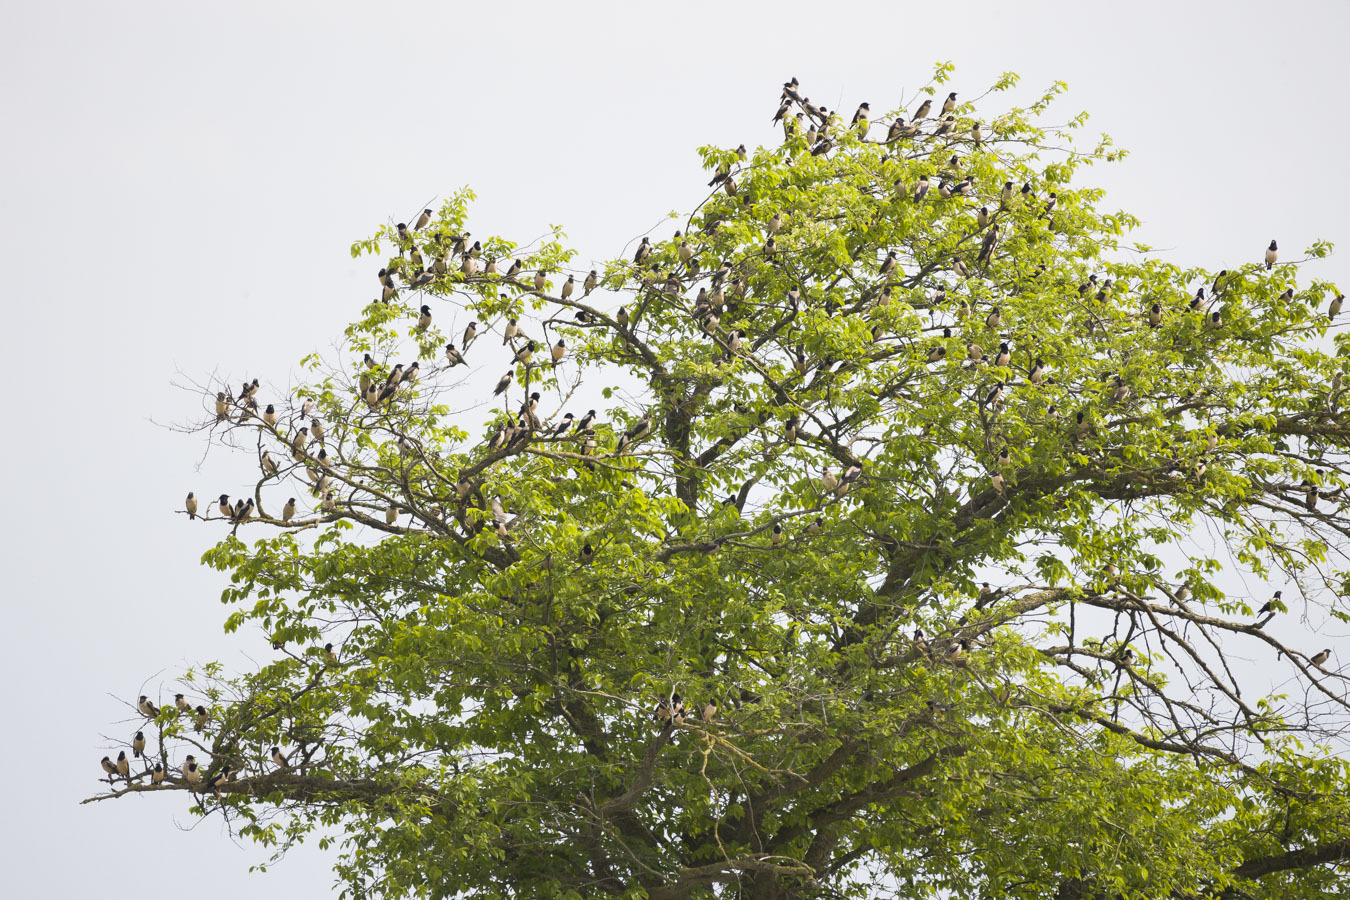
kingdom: Animalia
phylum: Chordata
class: Aves
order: Passeriformes
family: Sturnidae
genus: Pastor
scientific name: Pastor roseus
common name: Rosy starling
